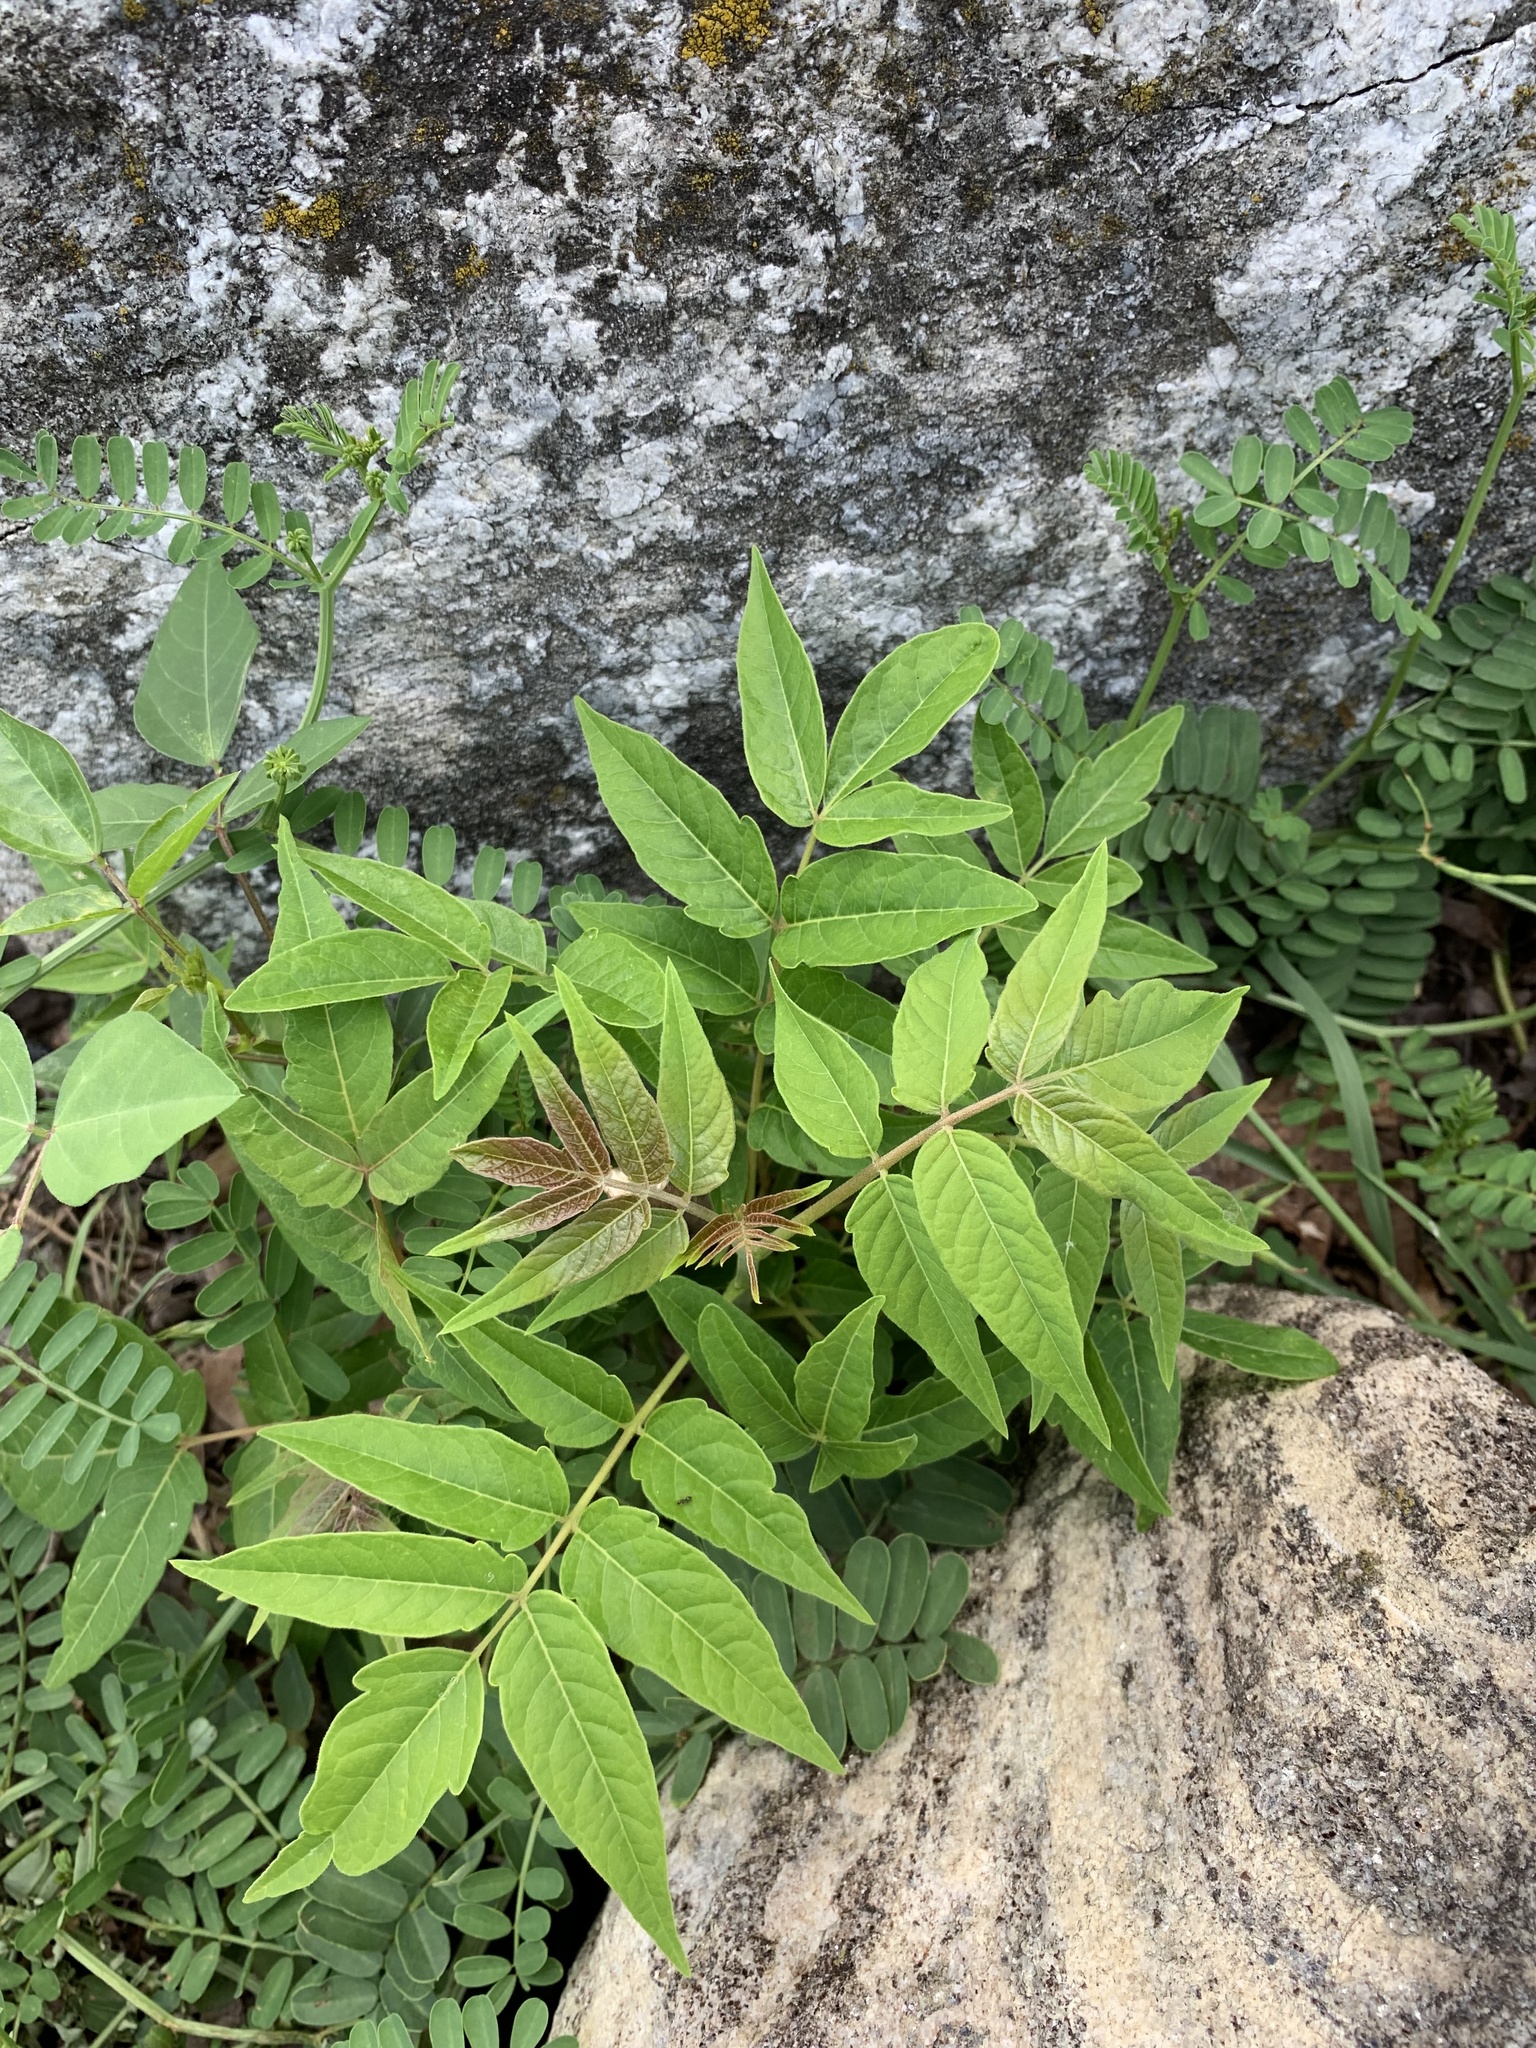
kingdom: Plantae
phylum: Tracheophyta
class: Magnoliopsida
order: Sapindales
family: Simaroubaceae
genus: Ailanthus
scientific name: Ailanthus altissima
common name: Tree-of-heaven
